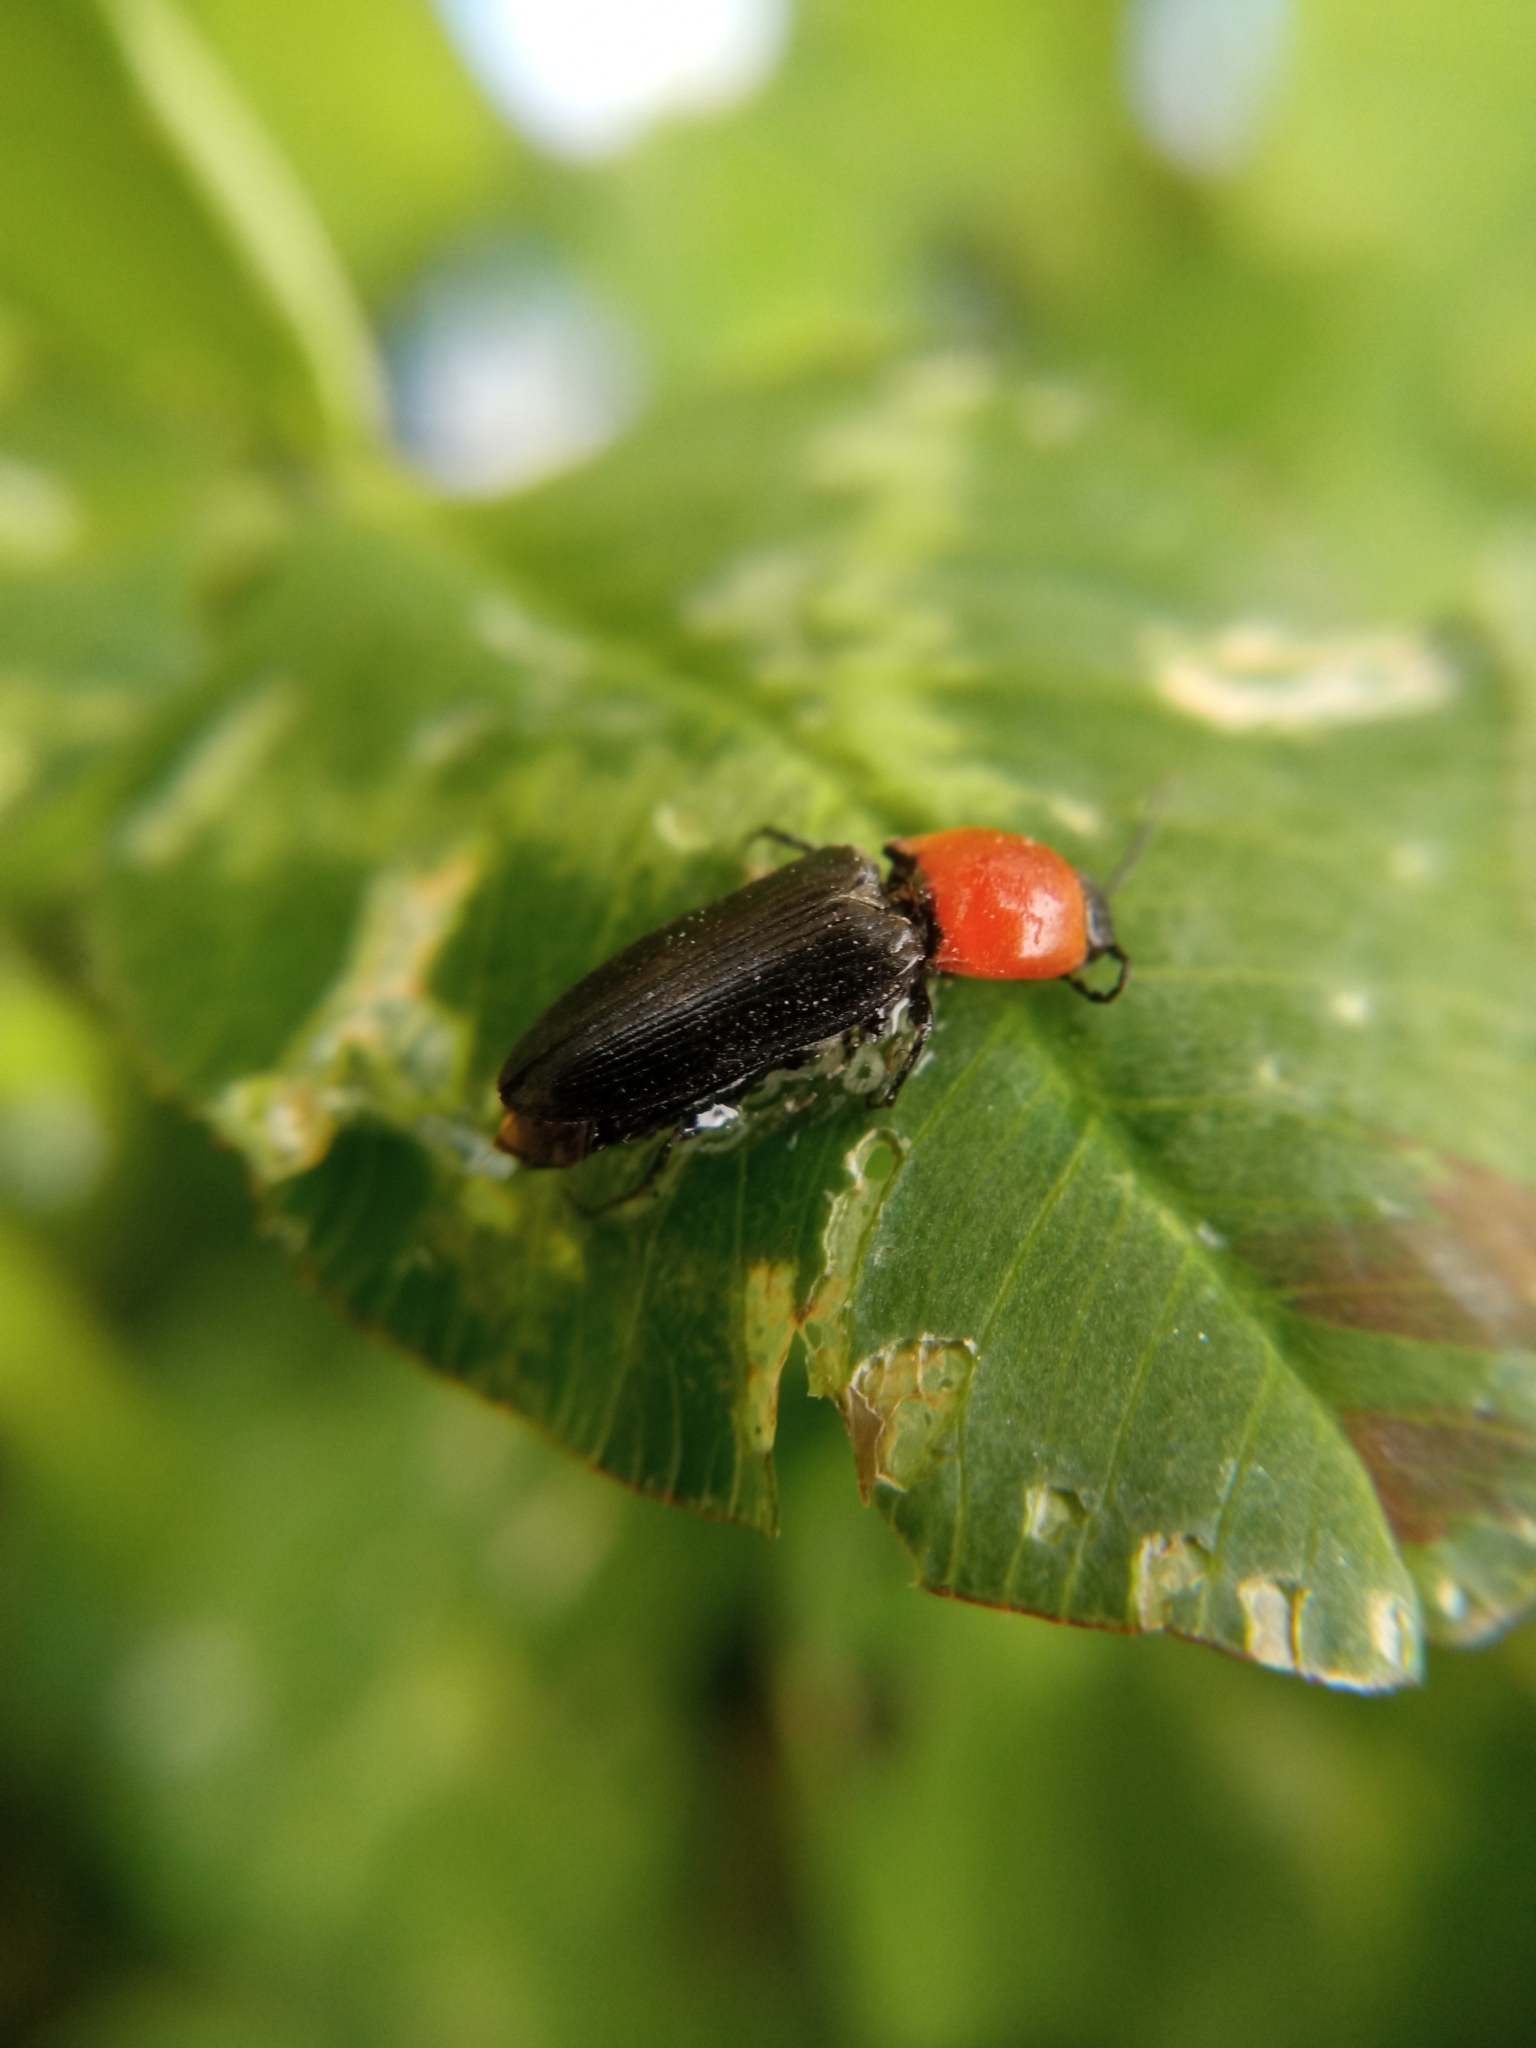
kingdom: Animalia
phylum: Arthropoda
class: Insecta
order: Coleoptera
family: Elateridae
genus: Cardiophorus
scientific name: Cardiophorus gramineus
